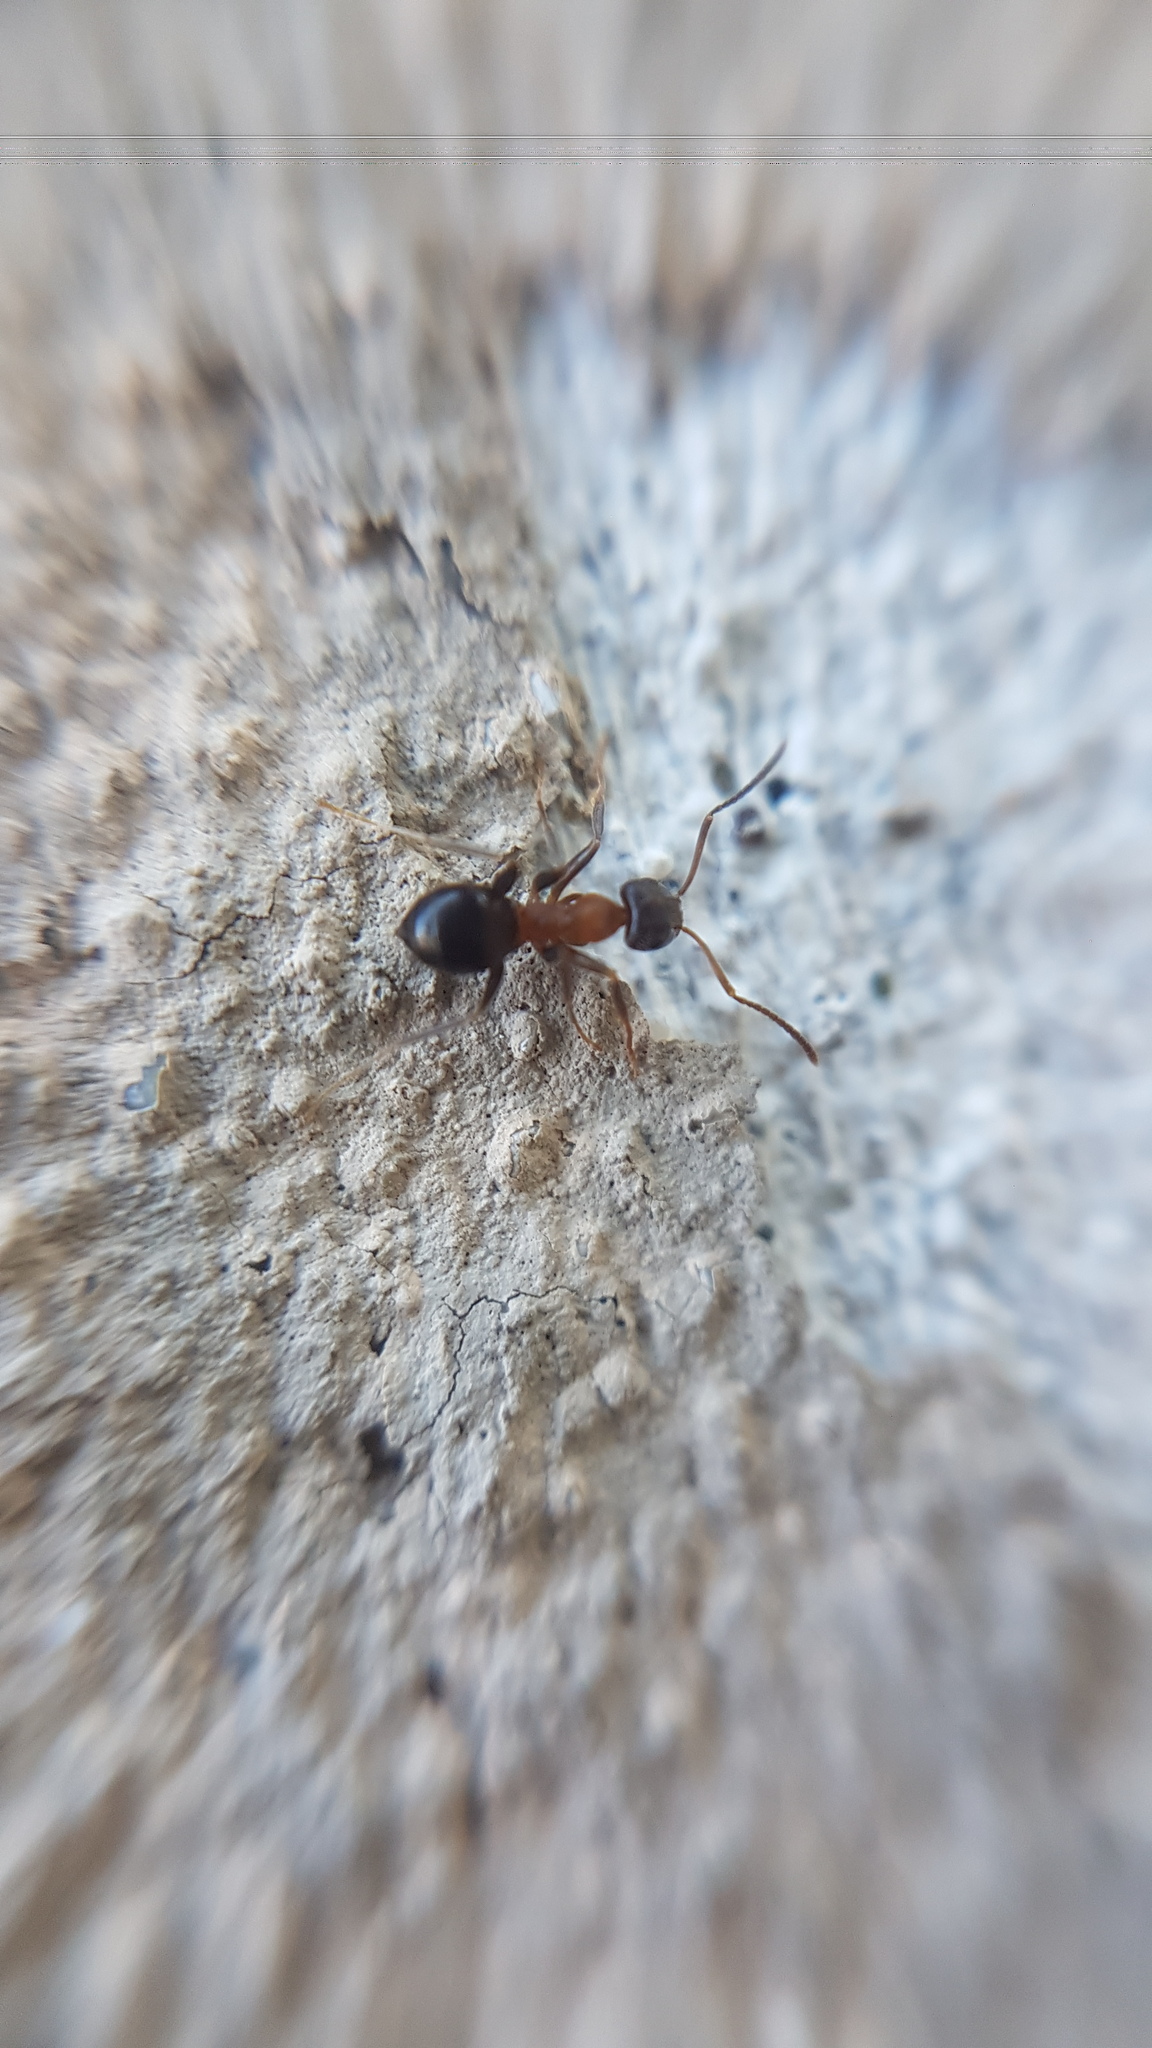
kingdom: Animalia
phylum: Arthropoda
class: Insecta
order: Hymenoptera
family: Formicidae
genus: Lasius
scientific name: Lasius emarginatus
